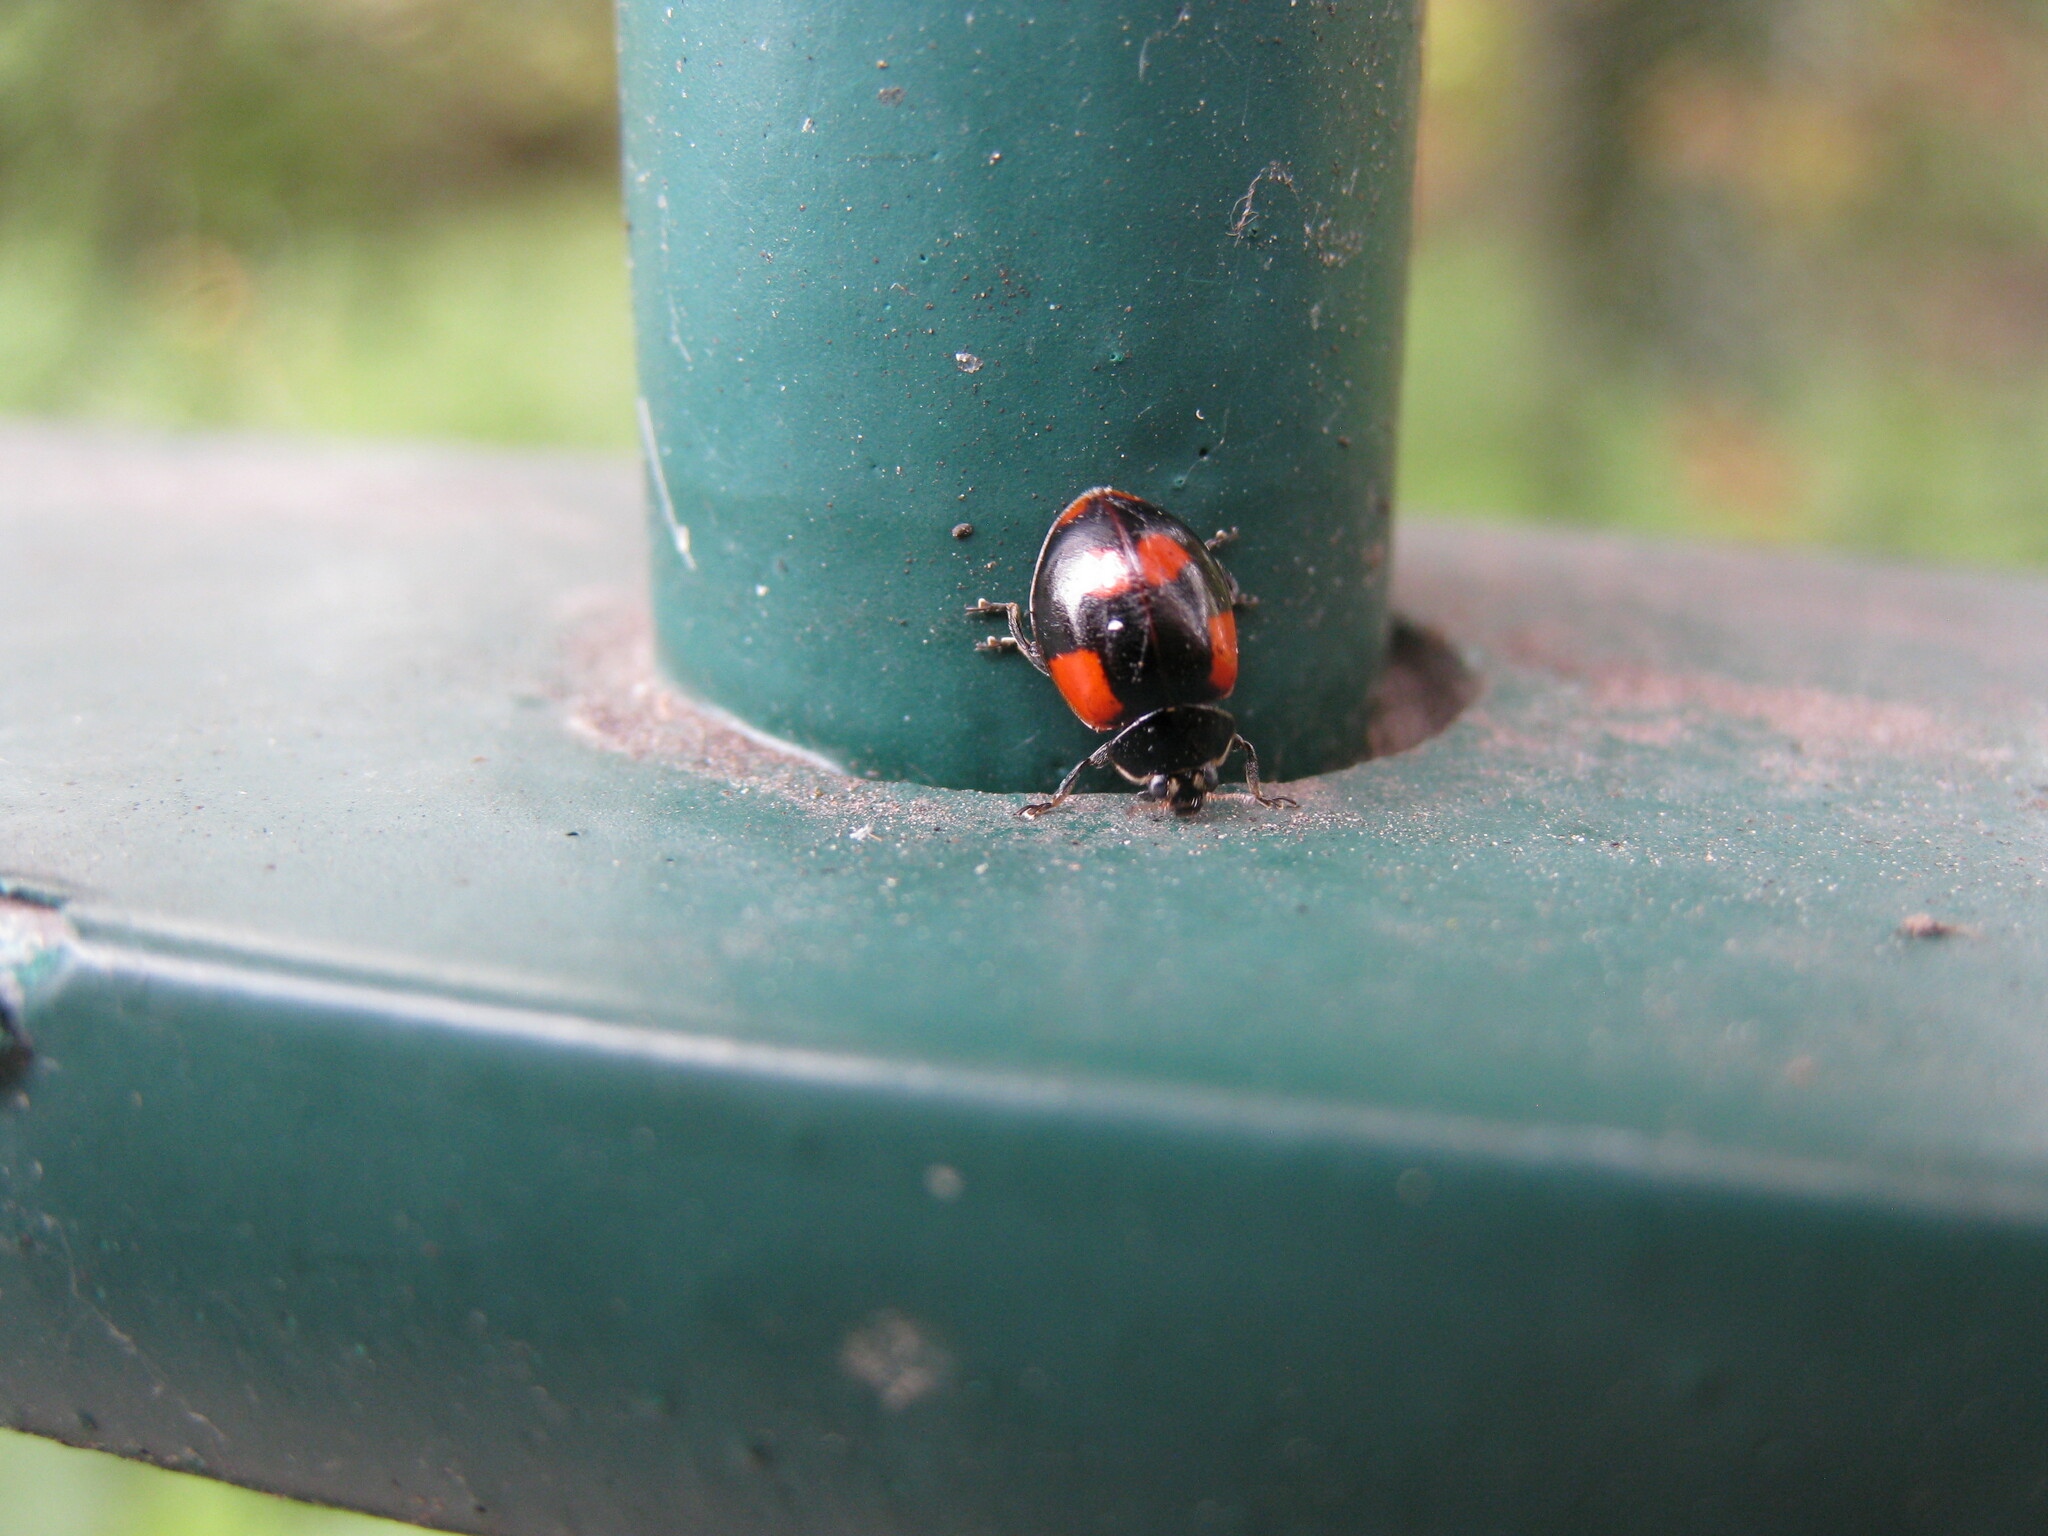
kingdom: Animalia
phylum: Arthropoda
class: Insecta
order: Coleoptera
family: Coccinellidae
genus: Adalia
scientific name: Adalia bipunctata
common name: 2-spot ladybird
